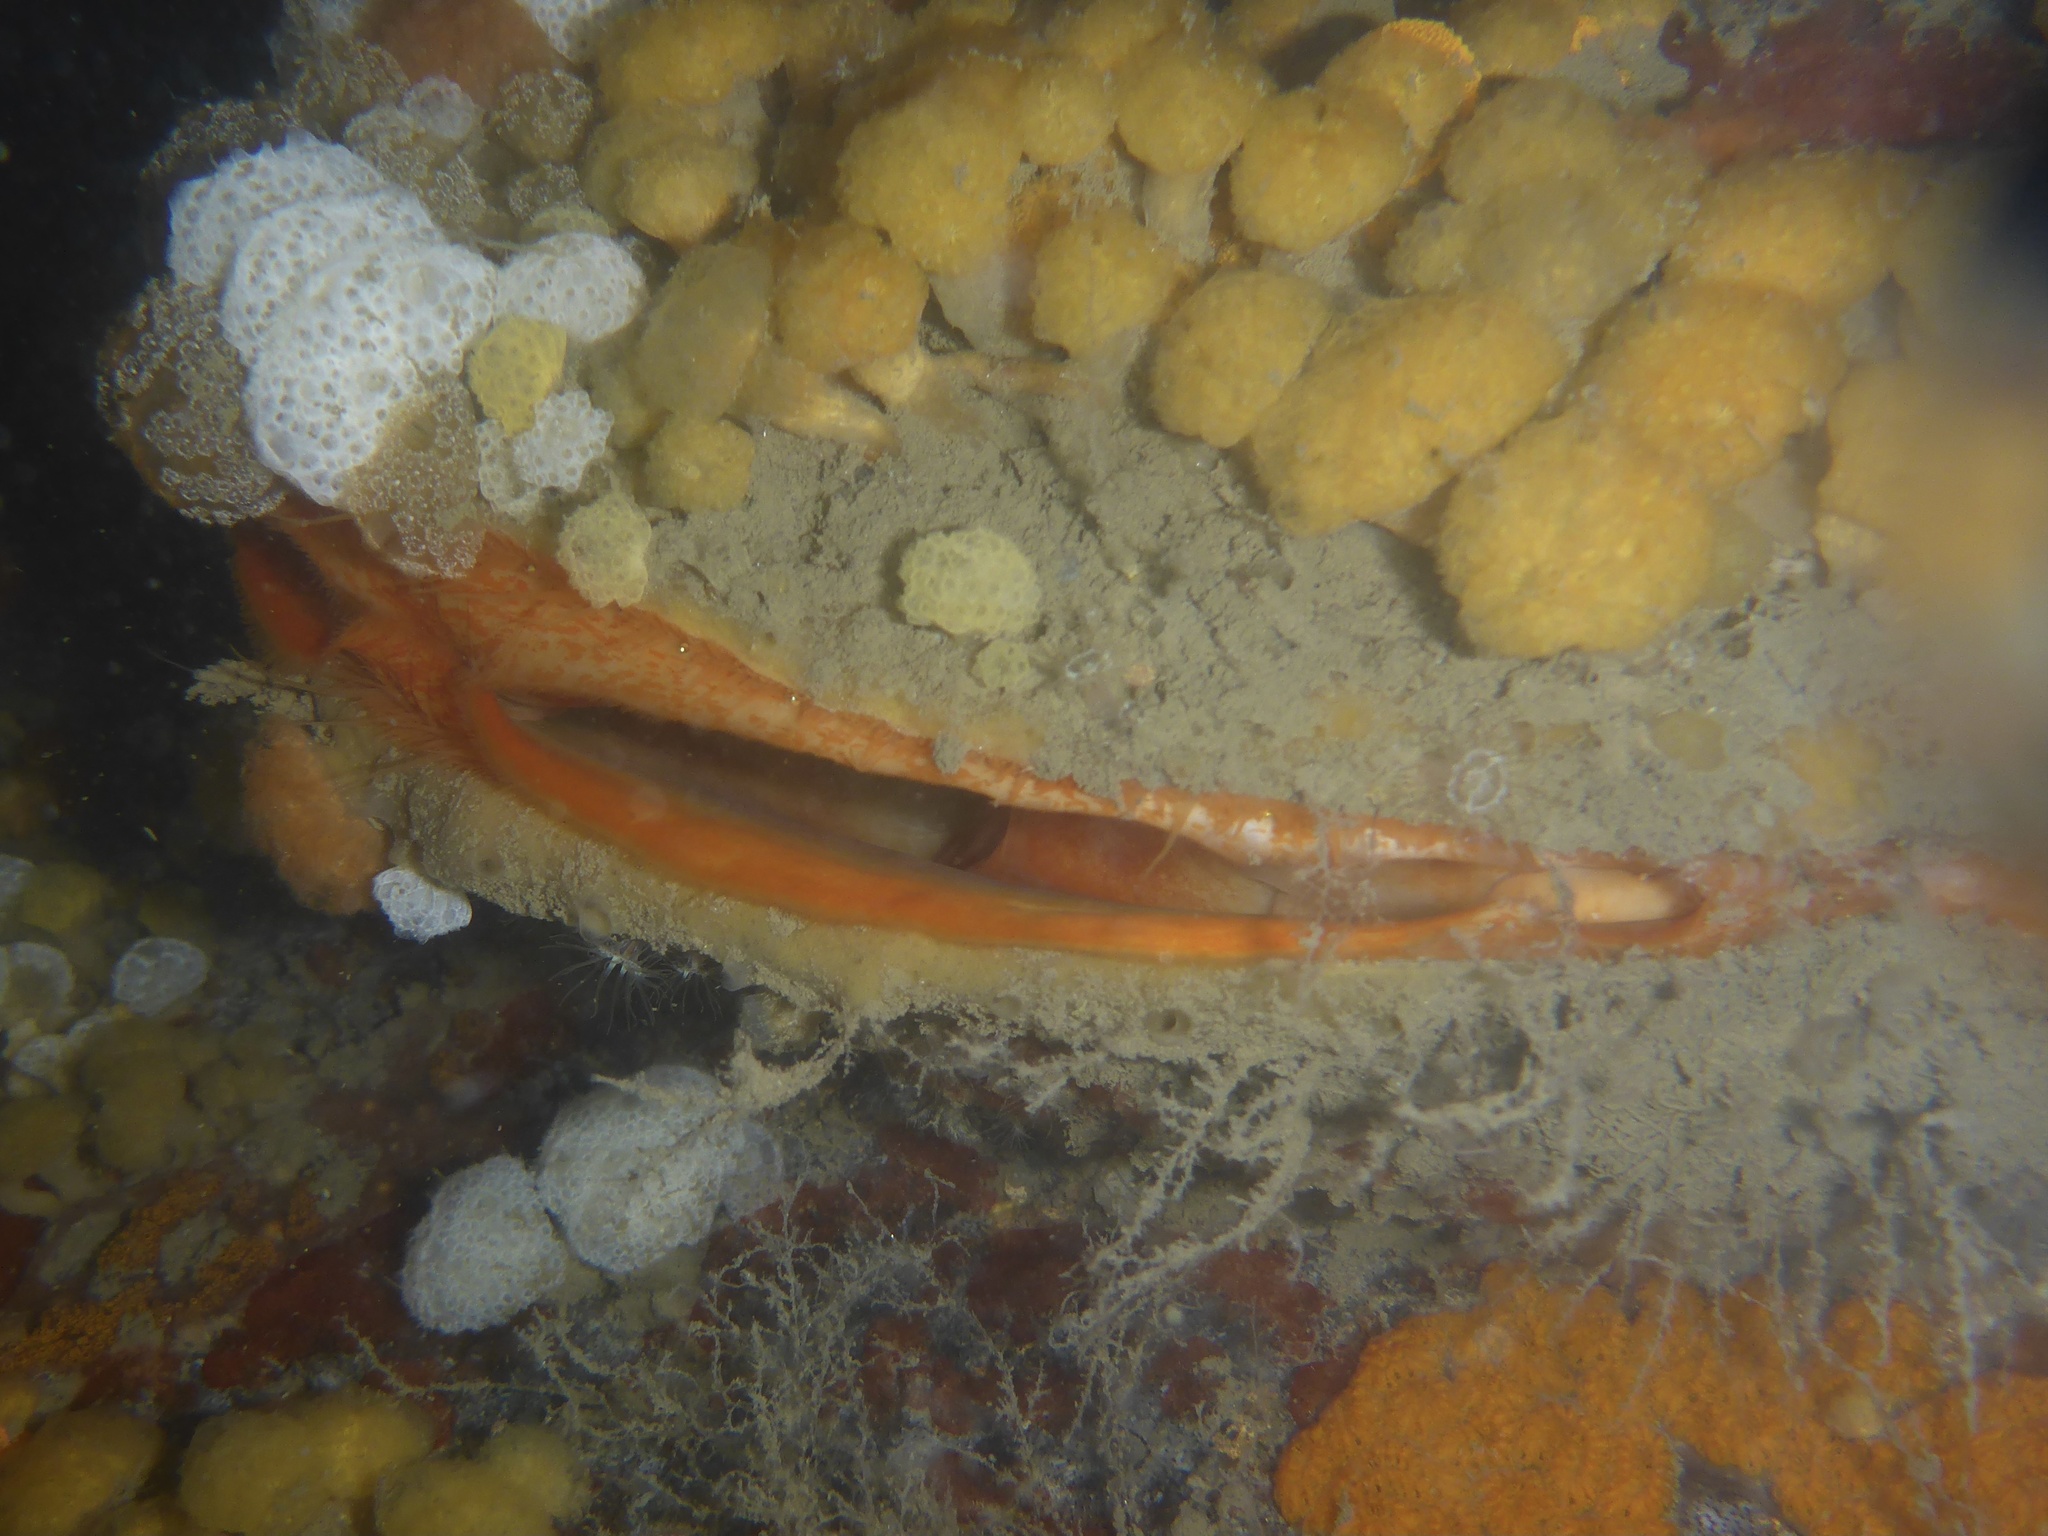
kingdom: Animalia
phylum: Mollusca
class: Bivalvia
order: Pectinida
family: Pectinidae
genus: Crassadoma
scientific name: Crassadoma gigantea
